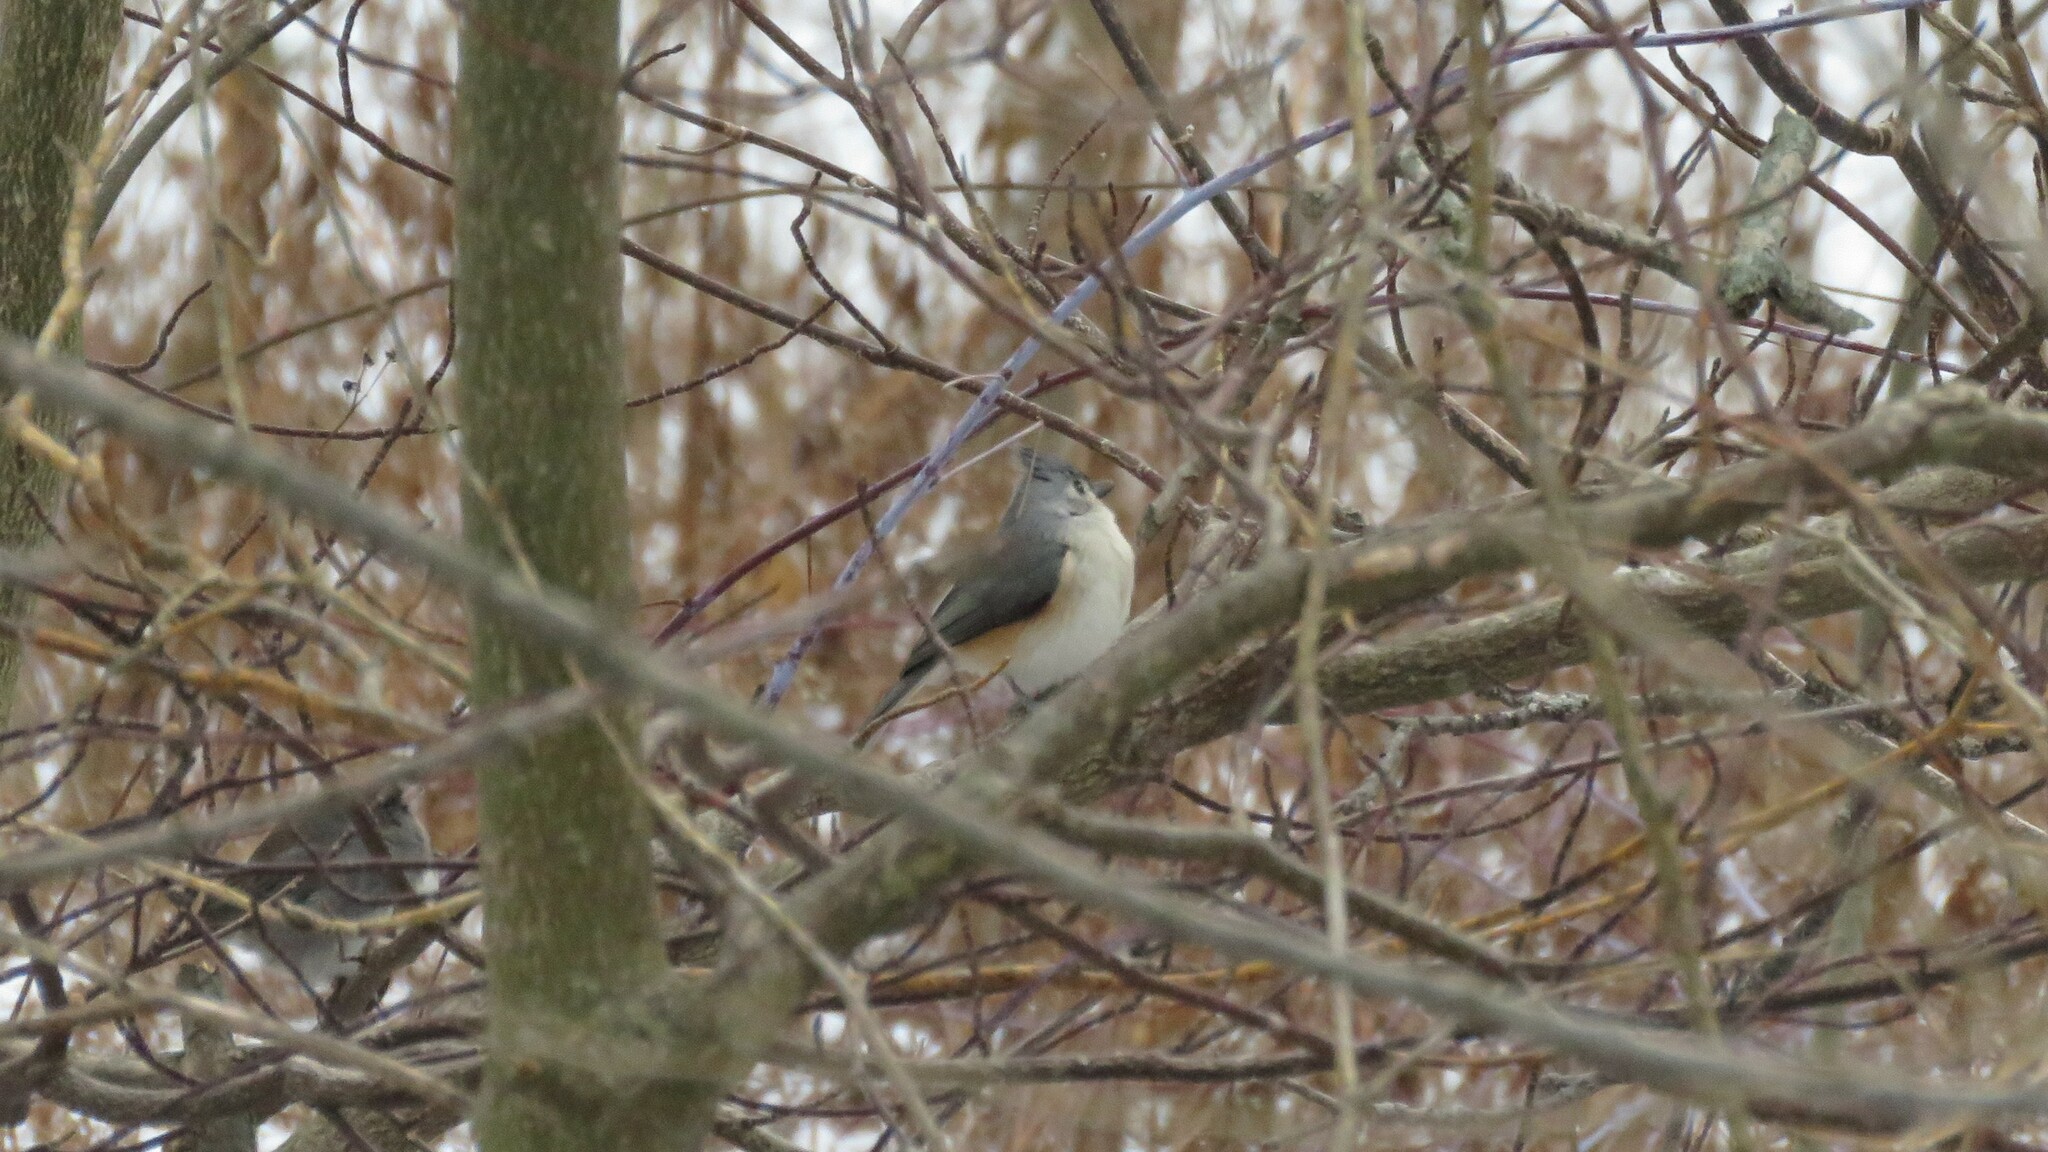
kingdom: Animalia
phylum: Chordata
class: Aves
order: Passeriformes
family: Paridae
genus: Baeolophus
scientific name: Baeolophus bicolor
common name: Tufted titmouse
